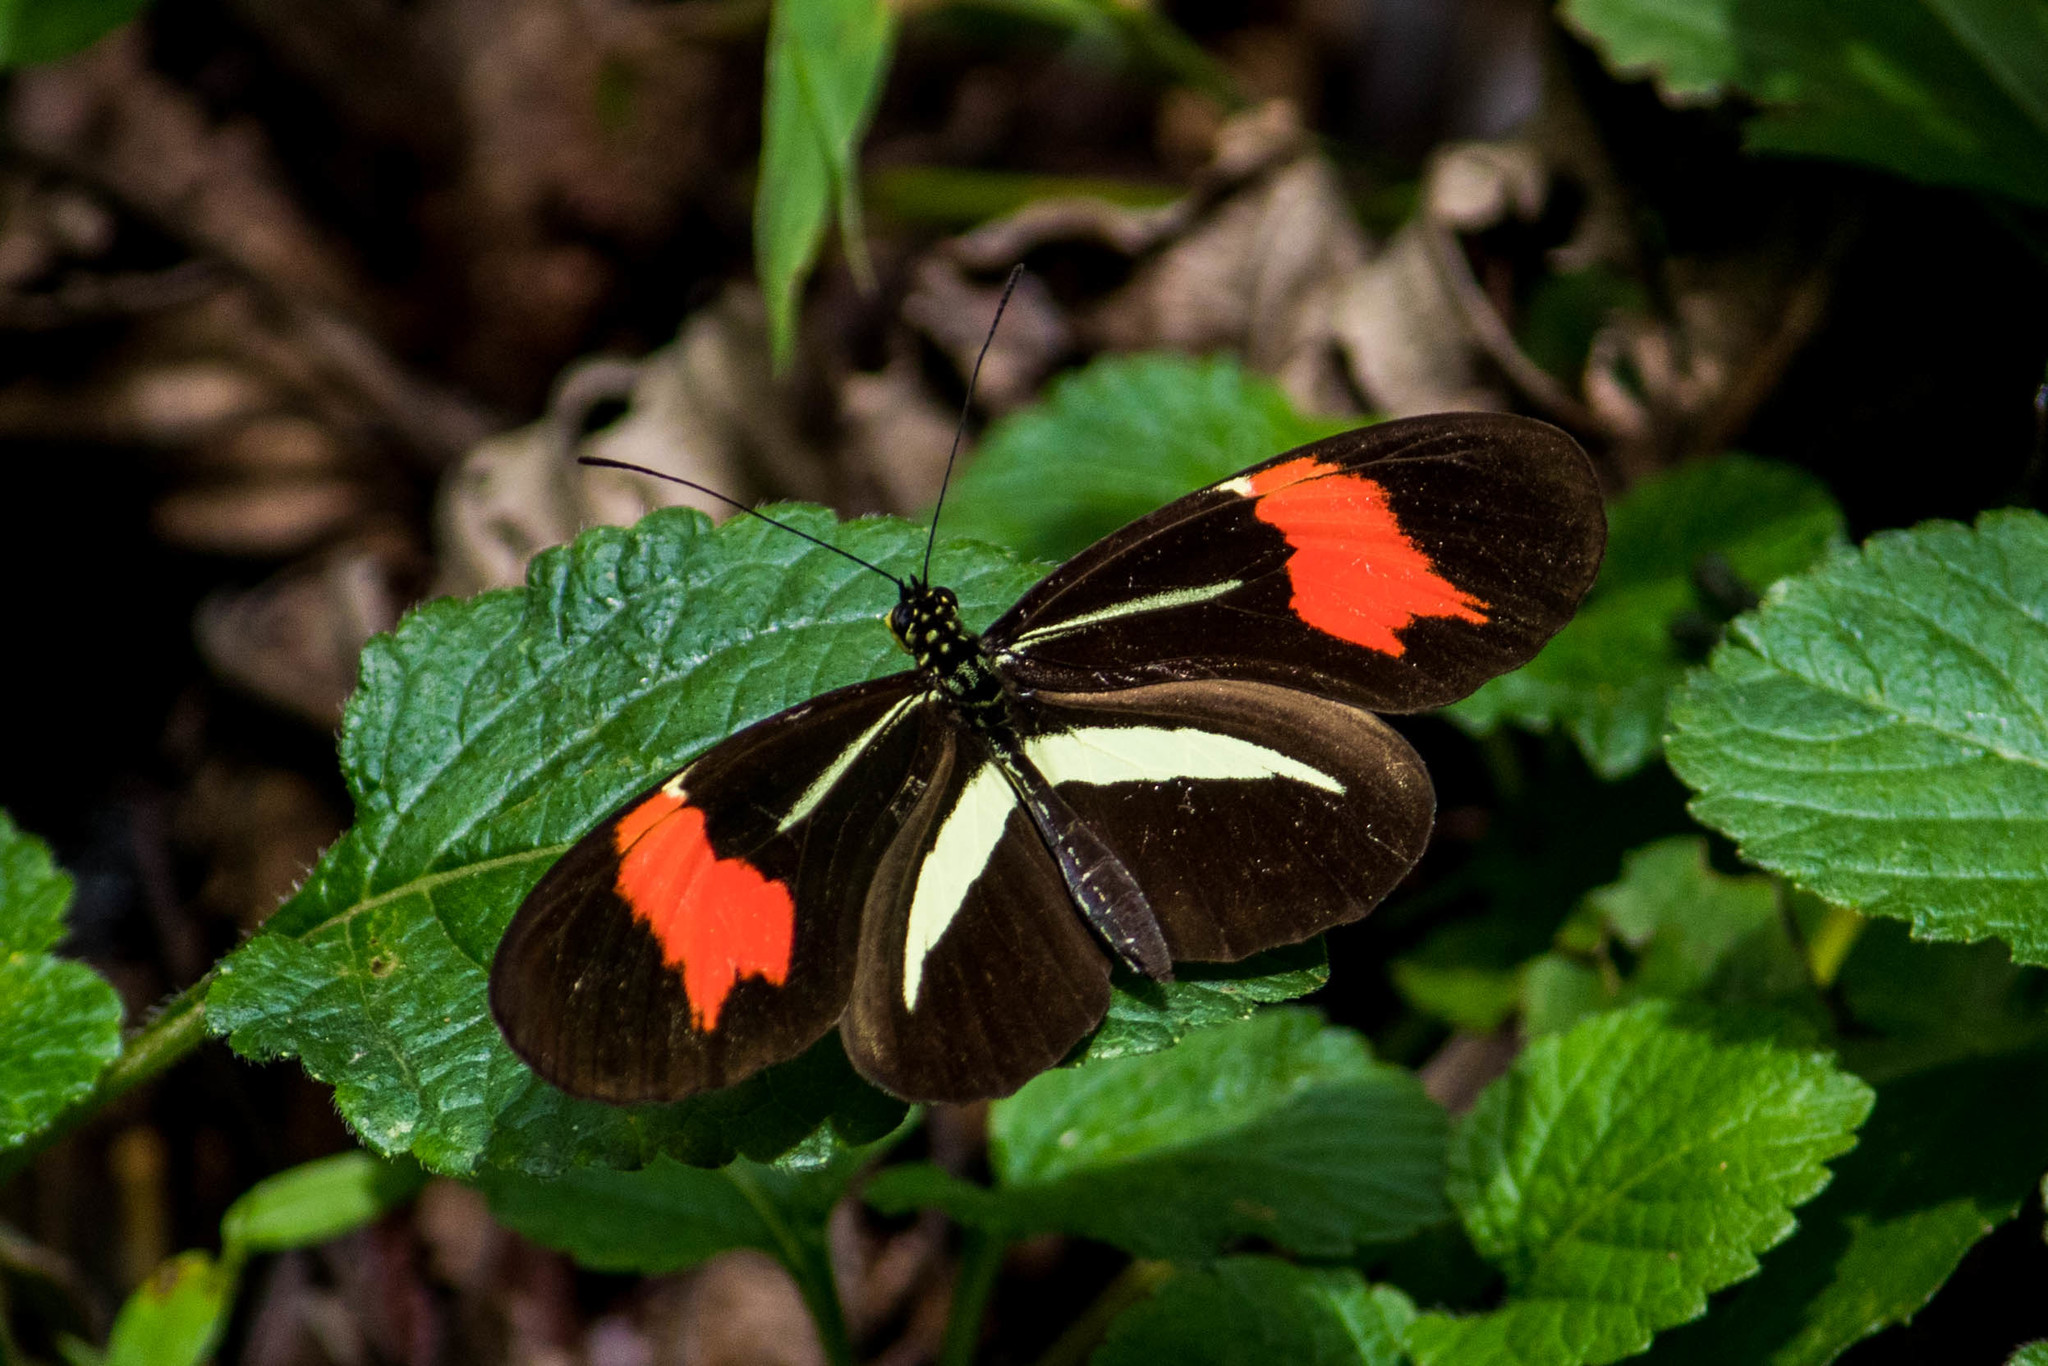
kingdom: Animalia
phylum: Arthropoda
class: Insecta
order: Lepidoptera
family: Nymphalidae
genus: Heliconius
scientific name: Heliconius erato
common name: Common patch longwing
